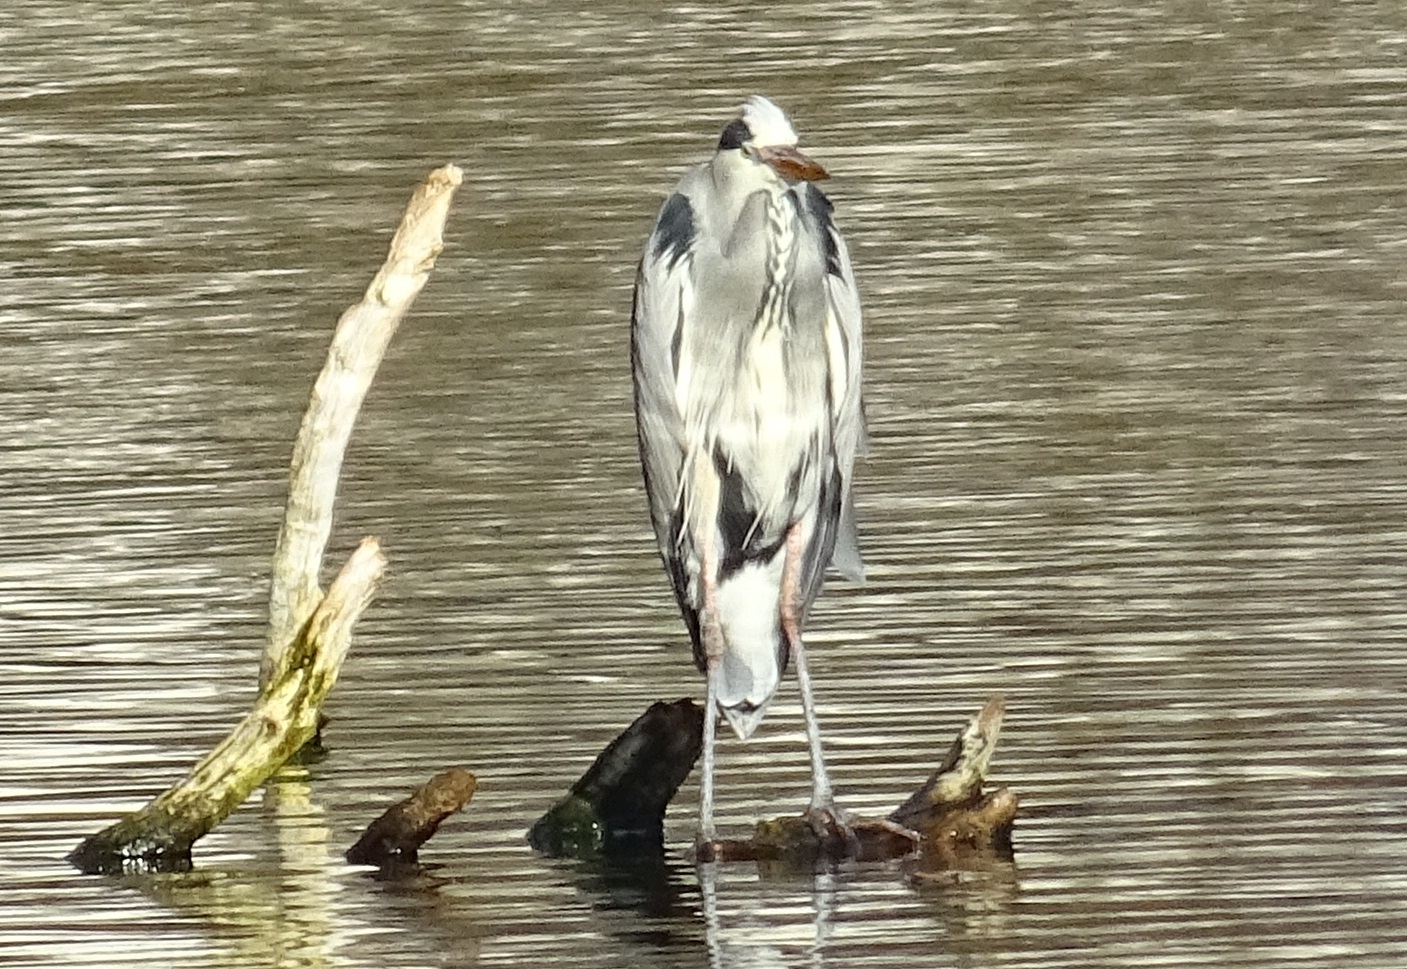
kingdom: Animalia
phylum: Chordata
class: Aves
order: Pelecaniformes
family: Ardeidae
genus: Ardea
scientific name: Ardea cinerea
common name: Grey heron
